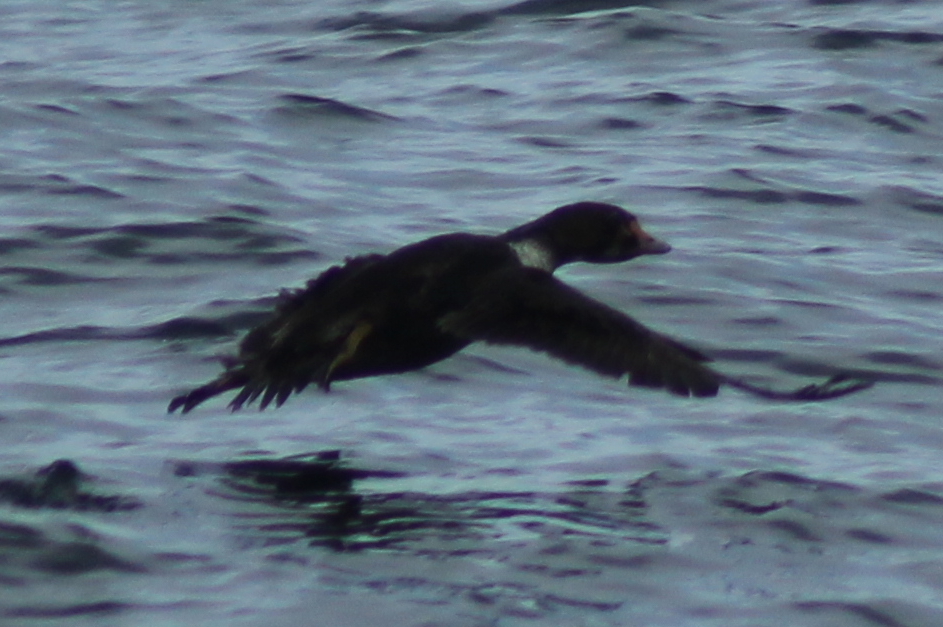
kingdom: Animalia
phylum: Chordata
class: Aves
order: Anseriformes
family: Anatidae
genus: Somateria
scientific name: Somateria spectabilis
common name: King eider
